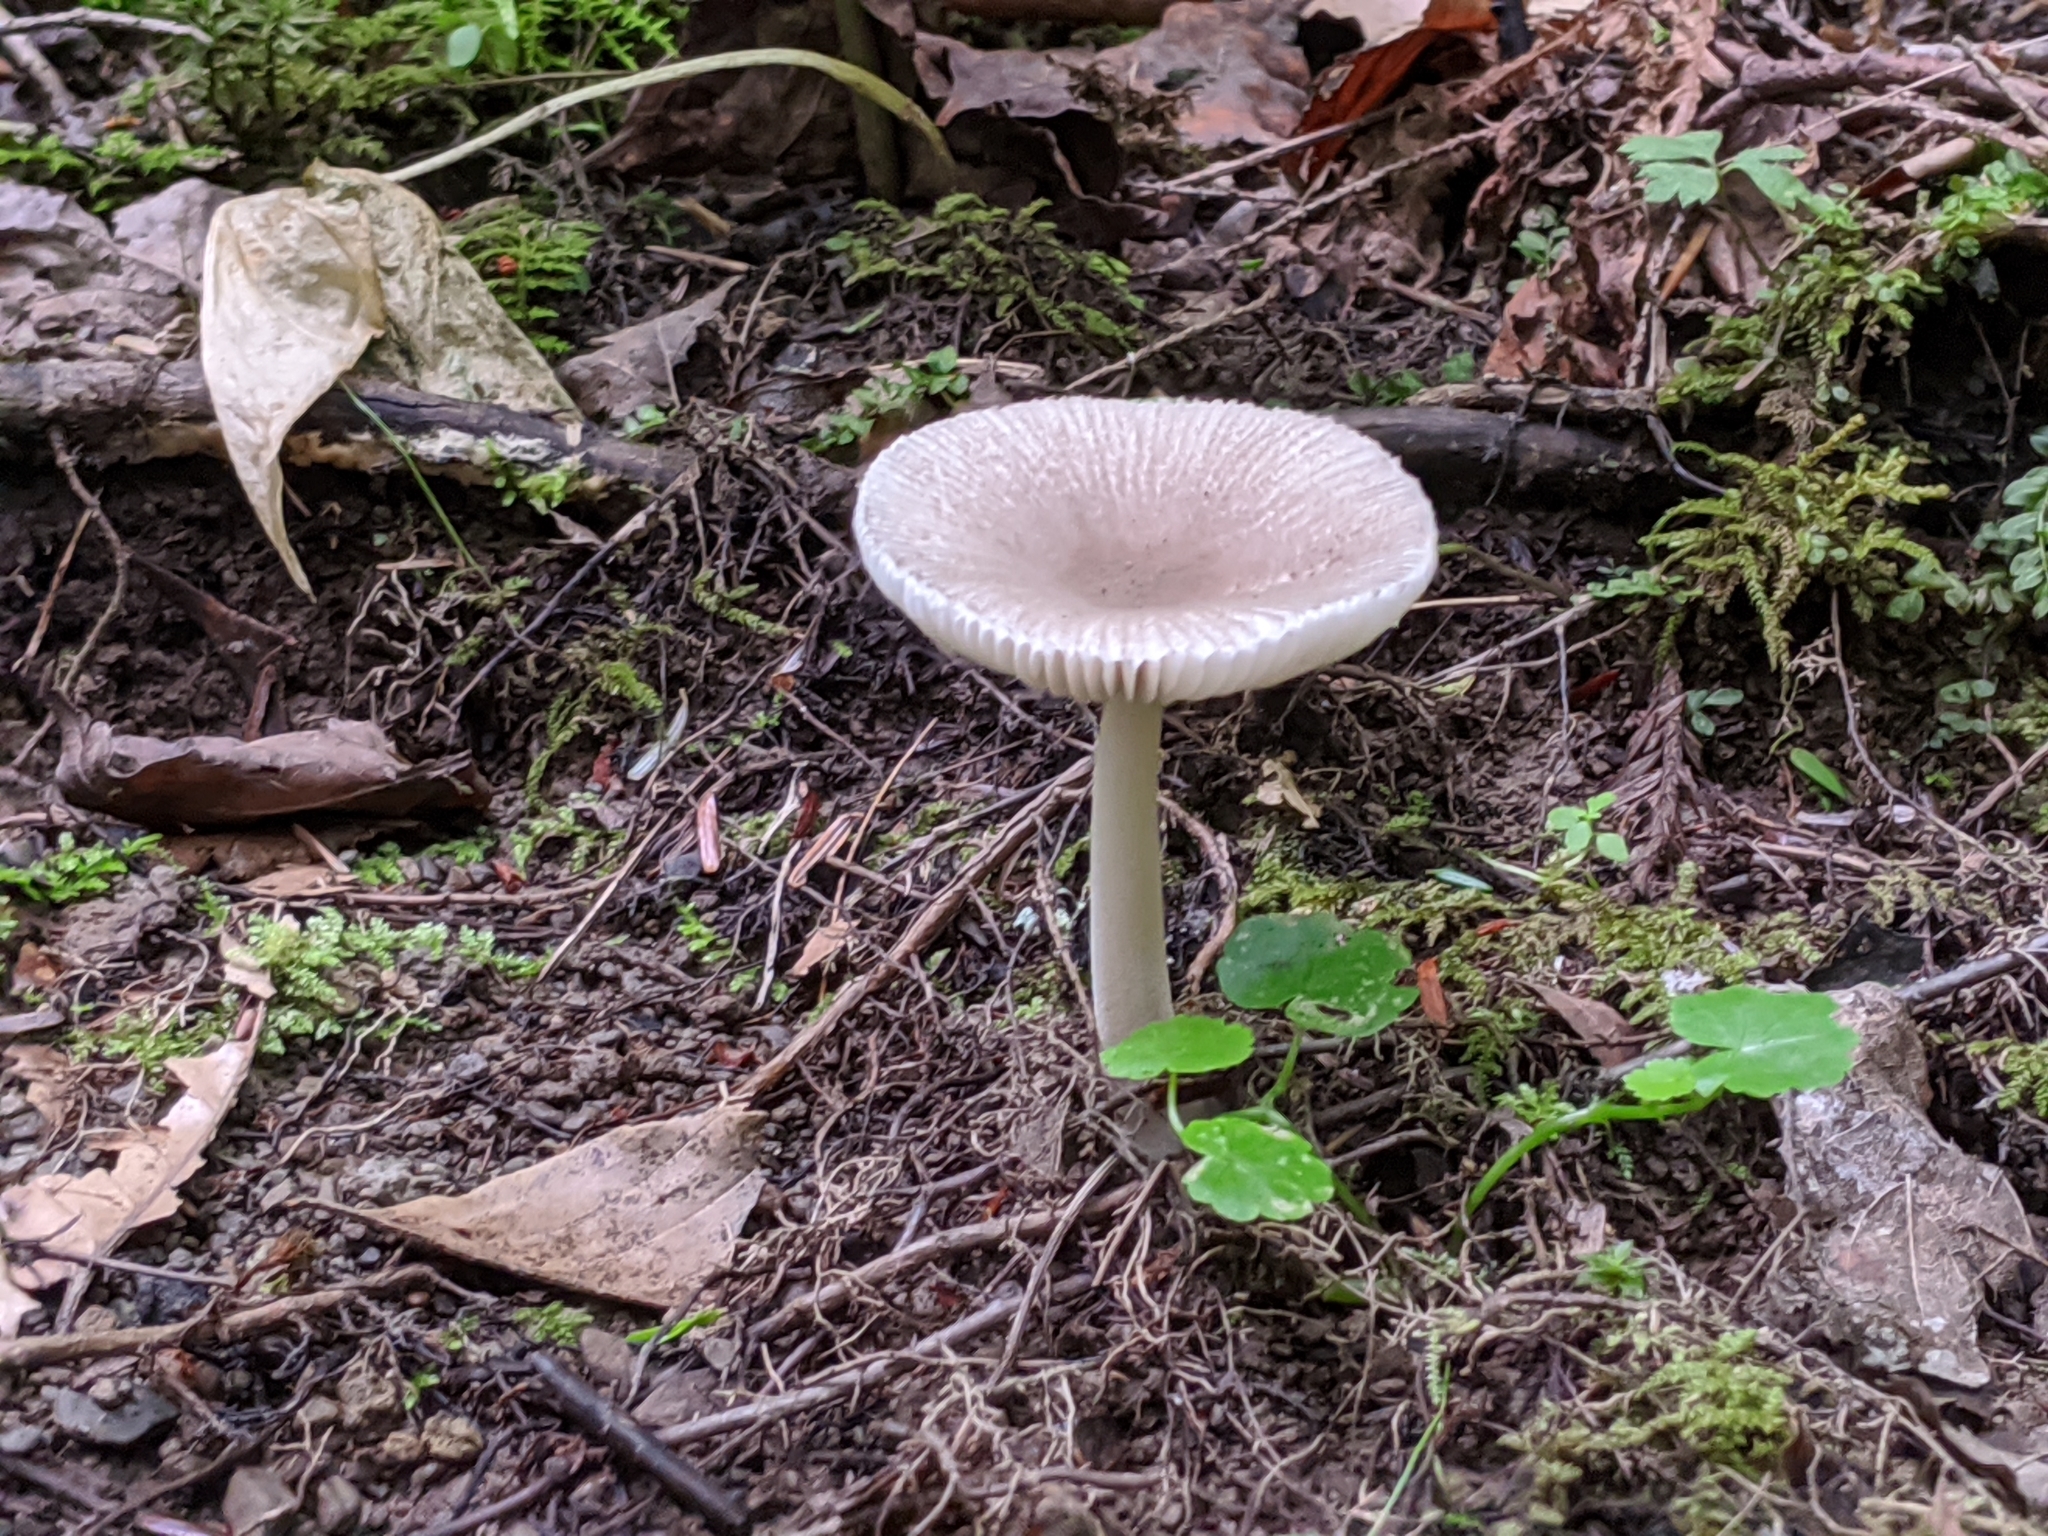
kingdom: Fungi
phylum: Basidiomycota
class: Agaricomycetes
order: Agaricales
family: Amanitaceae
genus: Amanita
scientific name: Amanita farinosa
